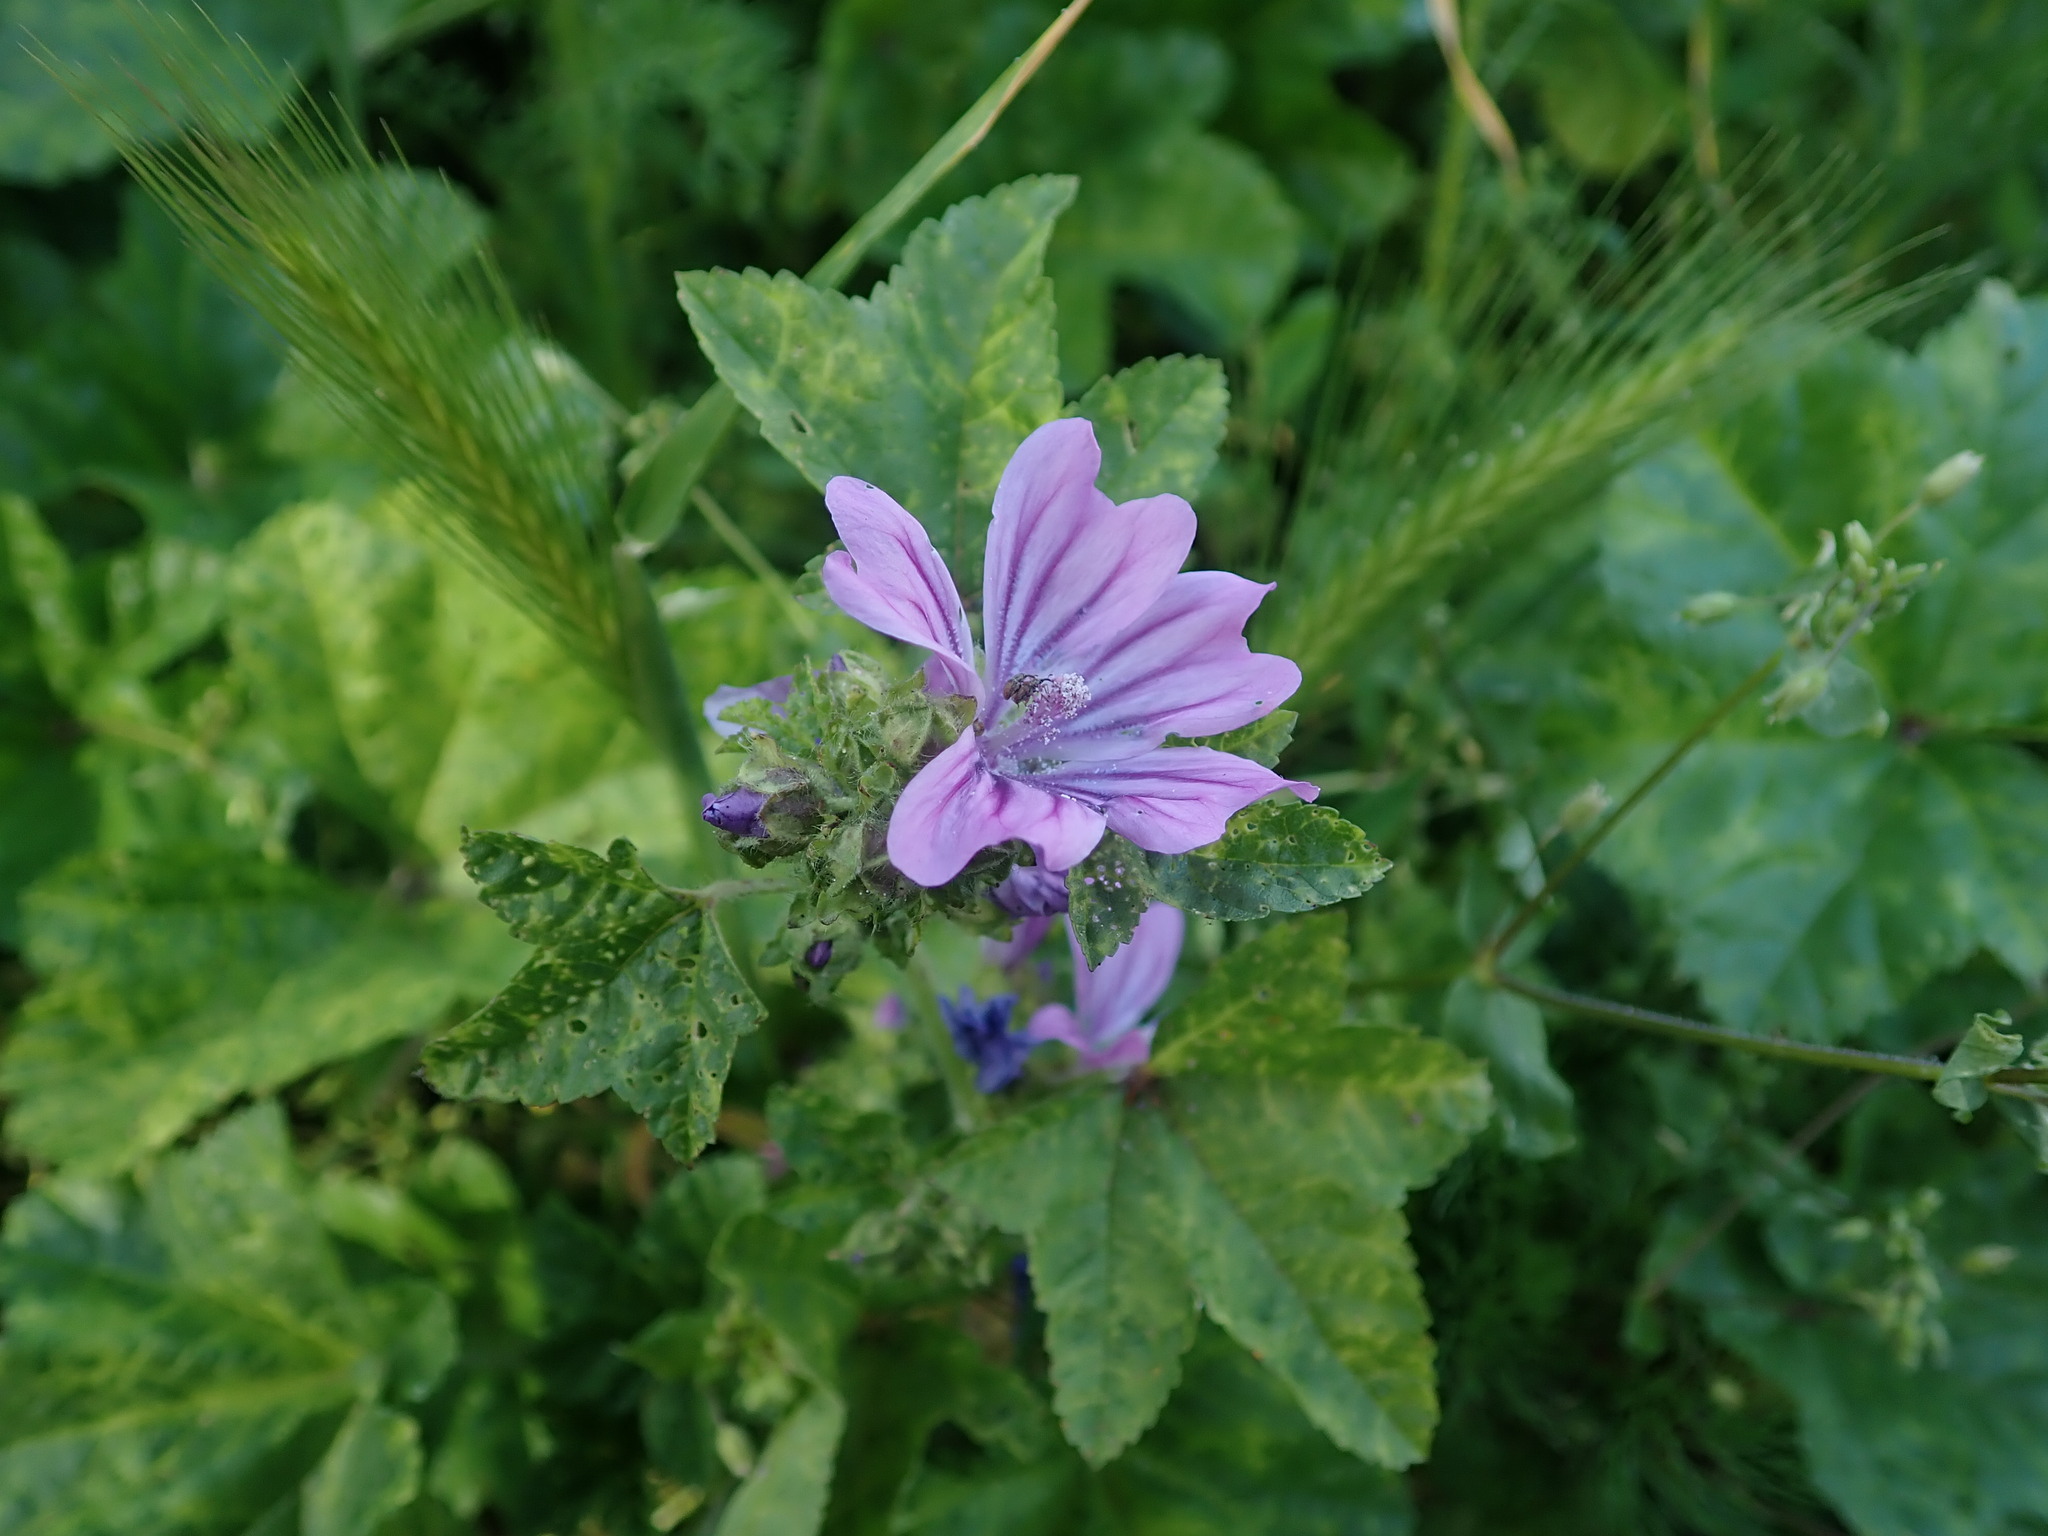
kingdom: Plantae
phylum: Tracheophyta
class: Magnoliopsida
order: Malvales
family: Malvaceae
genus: Malva
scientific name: Malva sylvestris
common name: Common mallow
